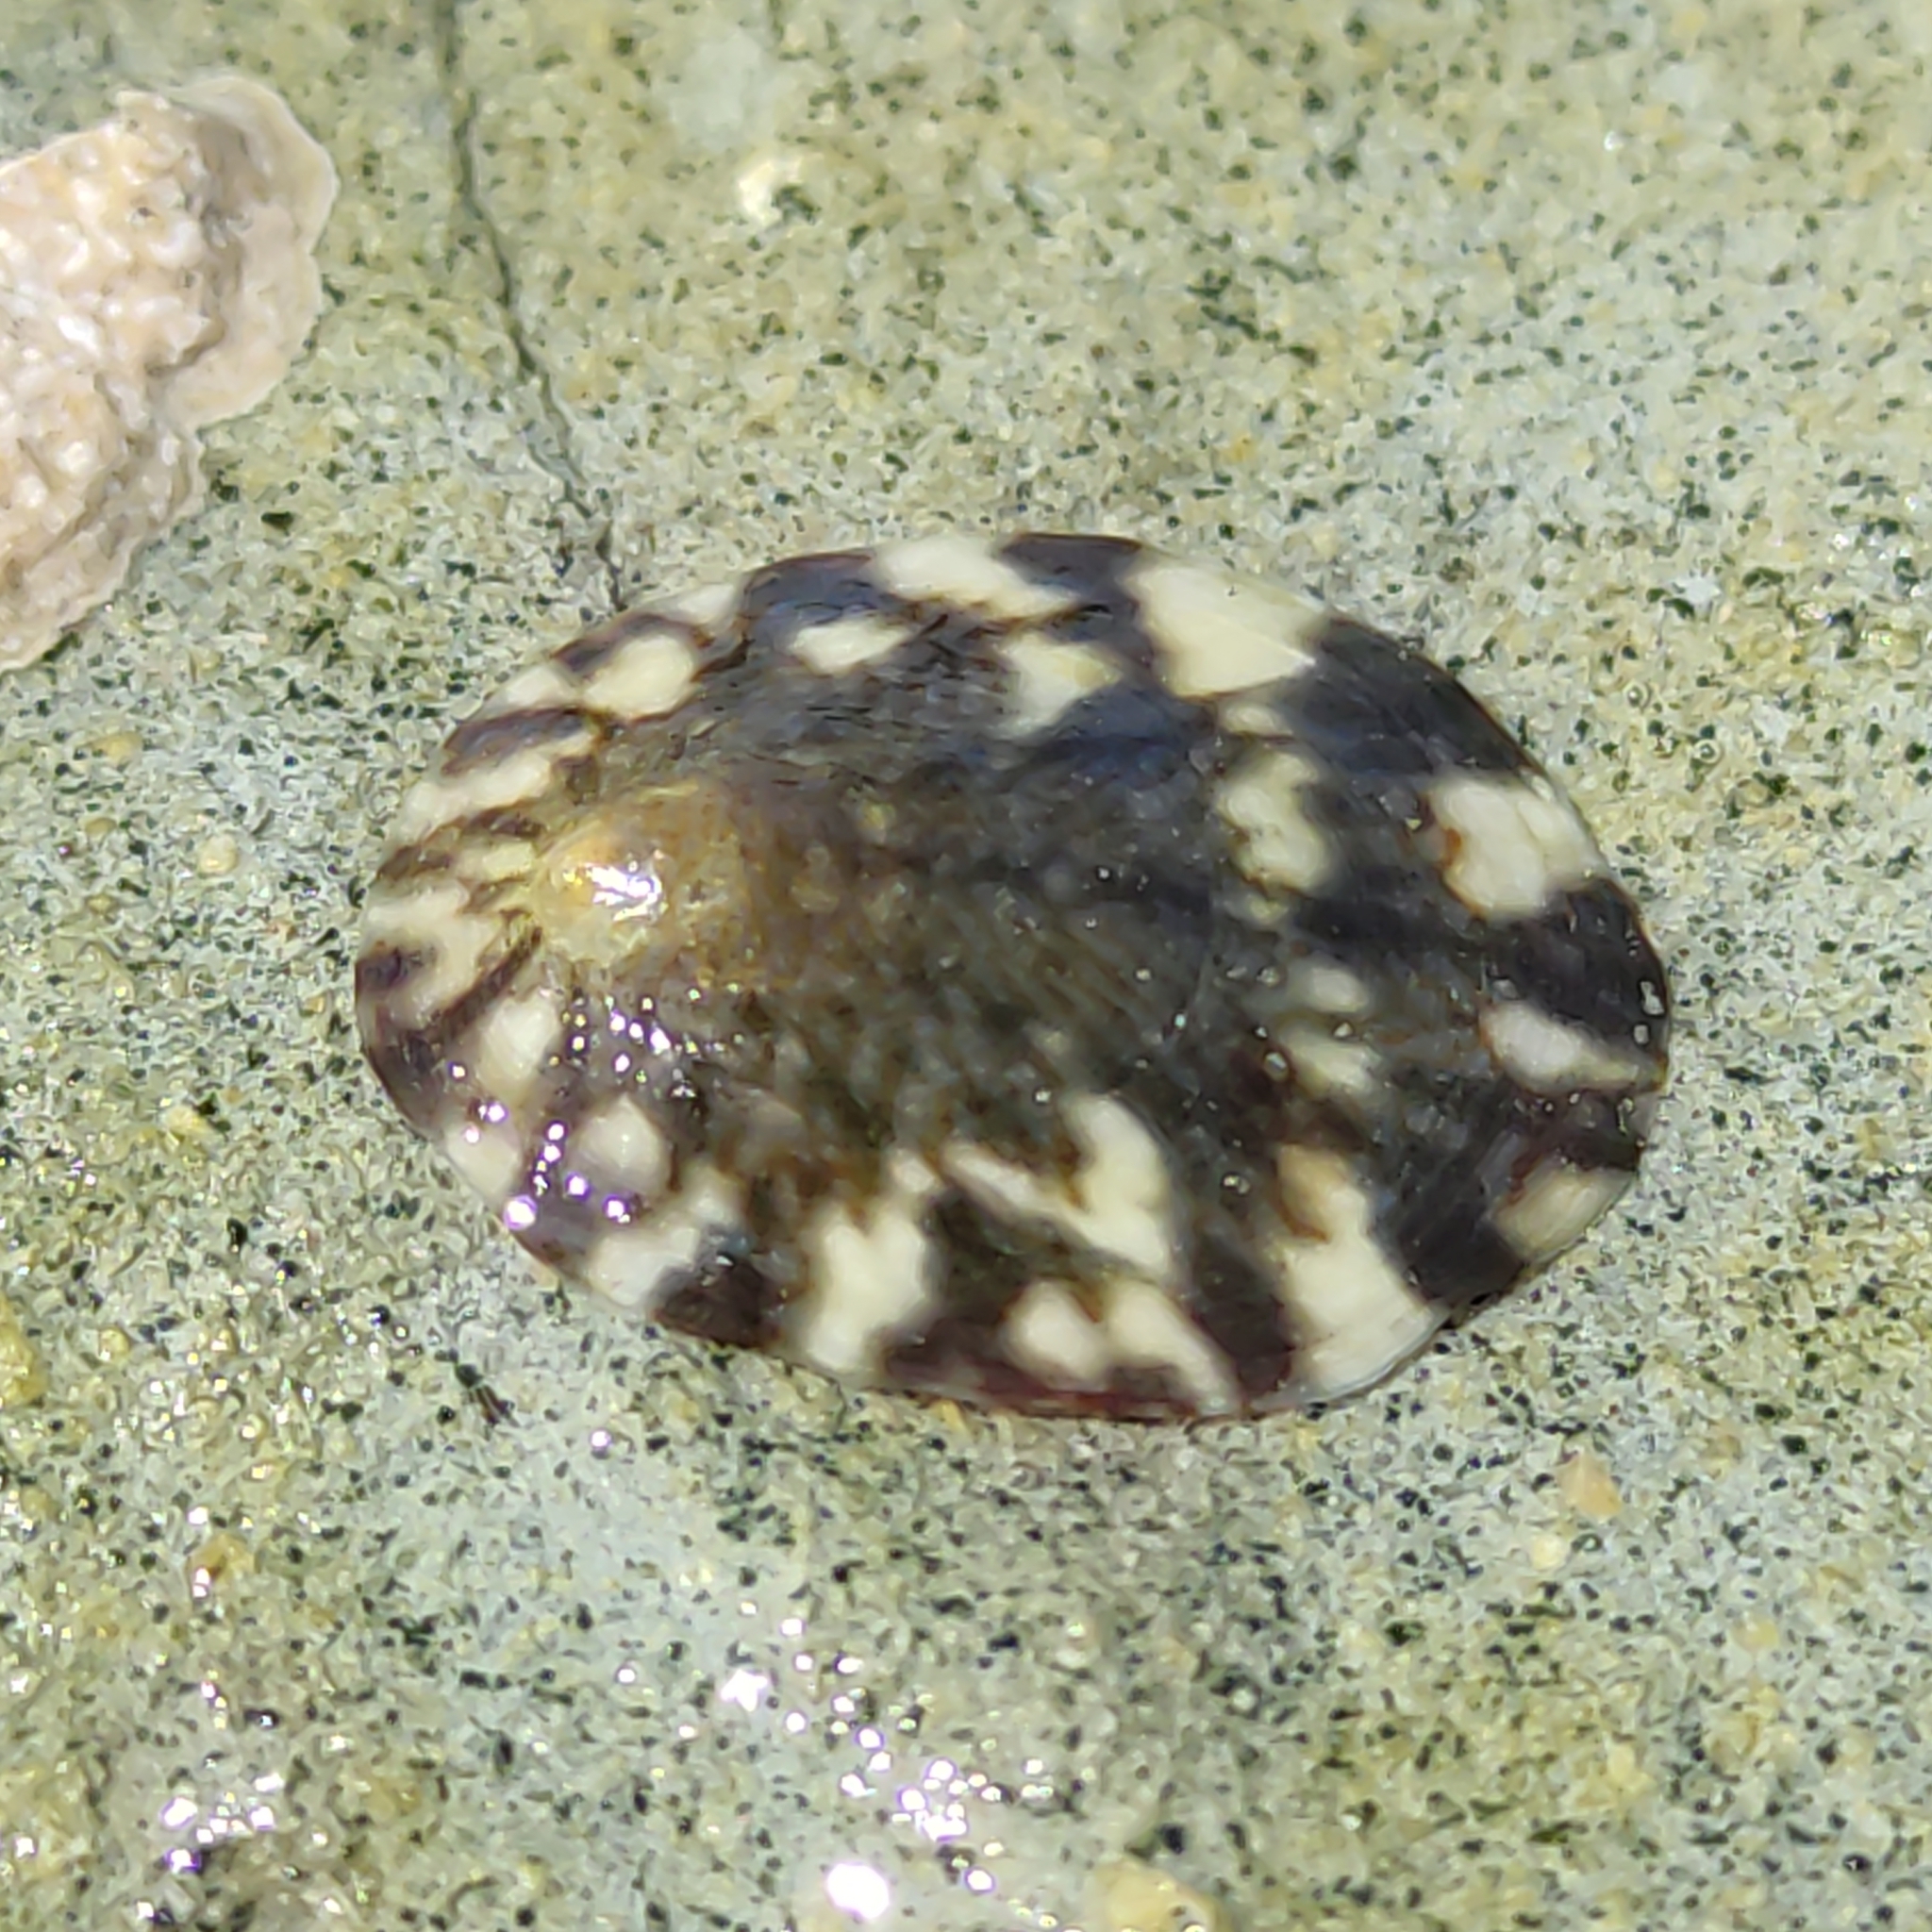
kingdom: Animalia
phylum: Mollusca
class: Gastropoda
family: Nacellidae
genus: Cellana
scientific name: Cellana radians
